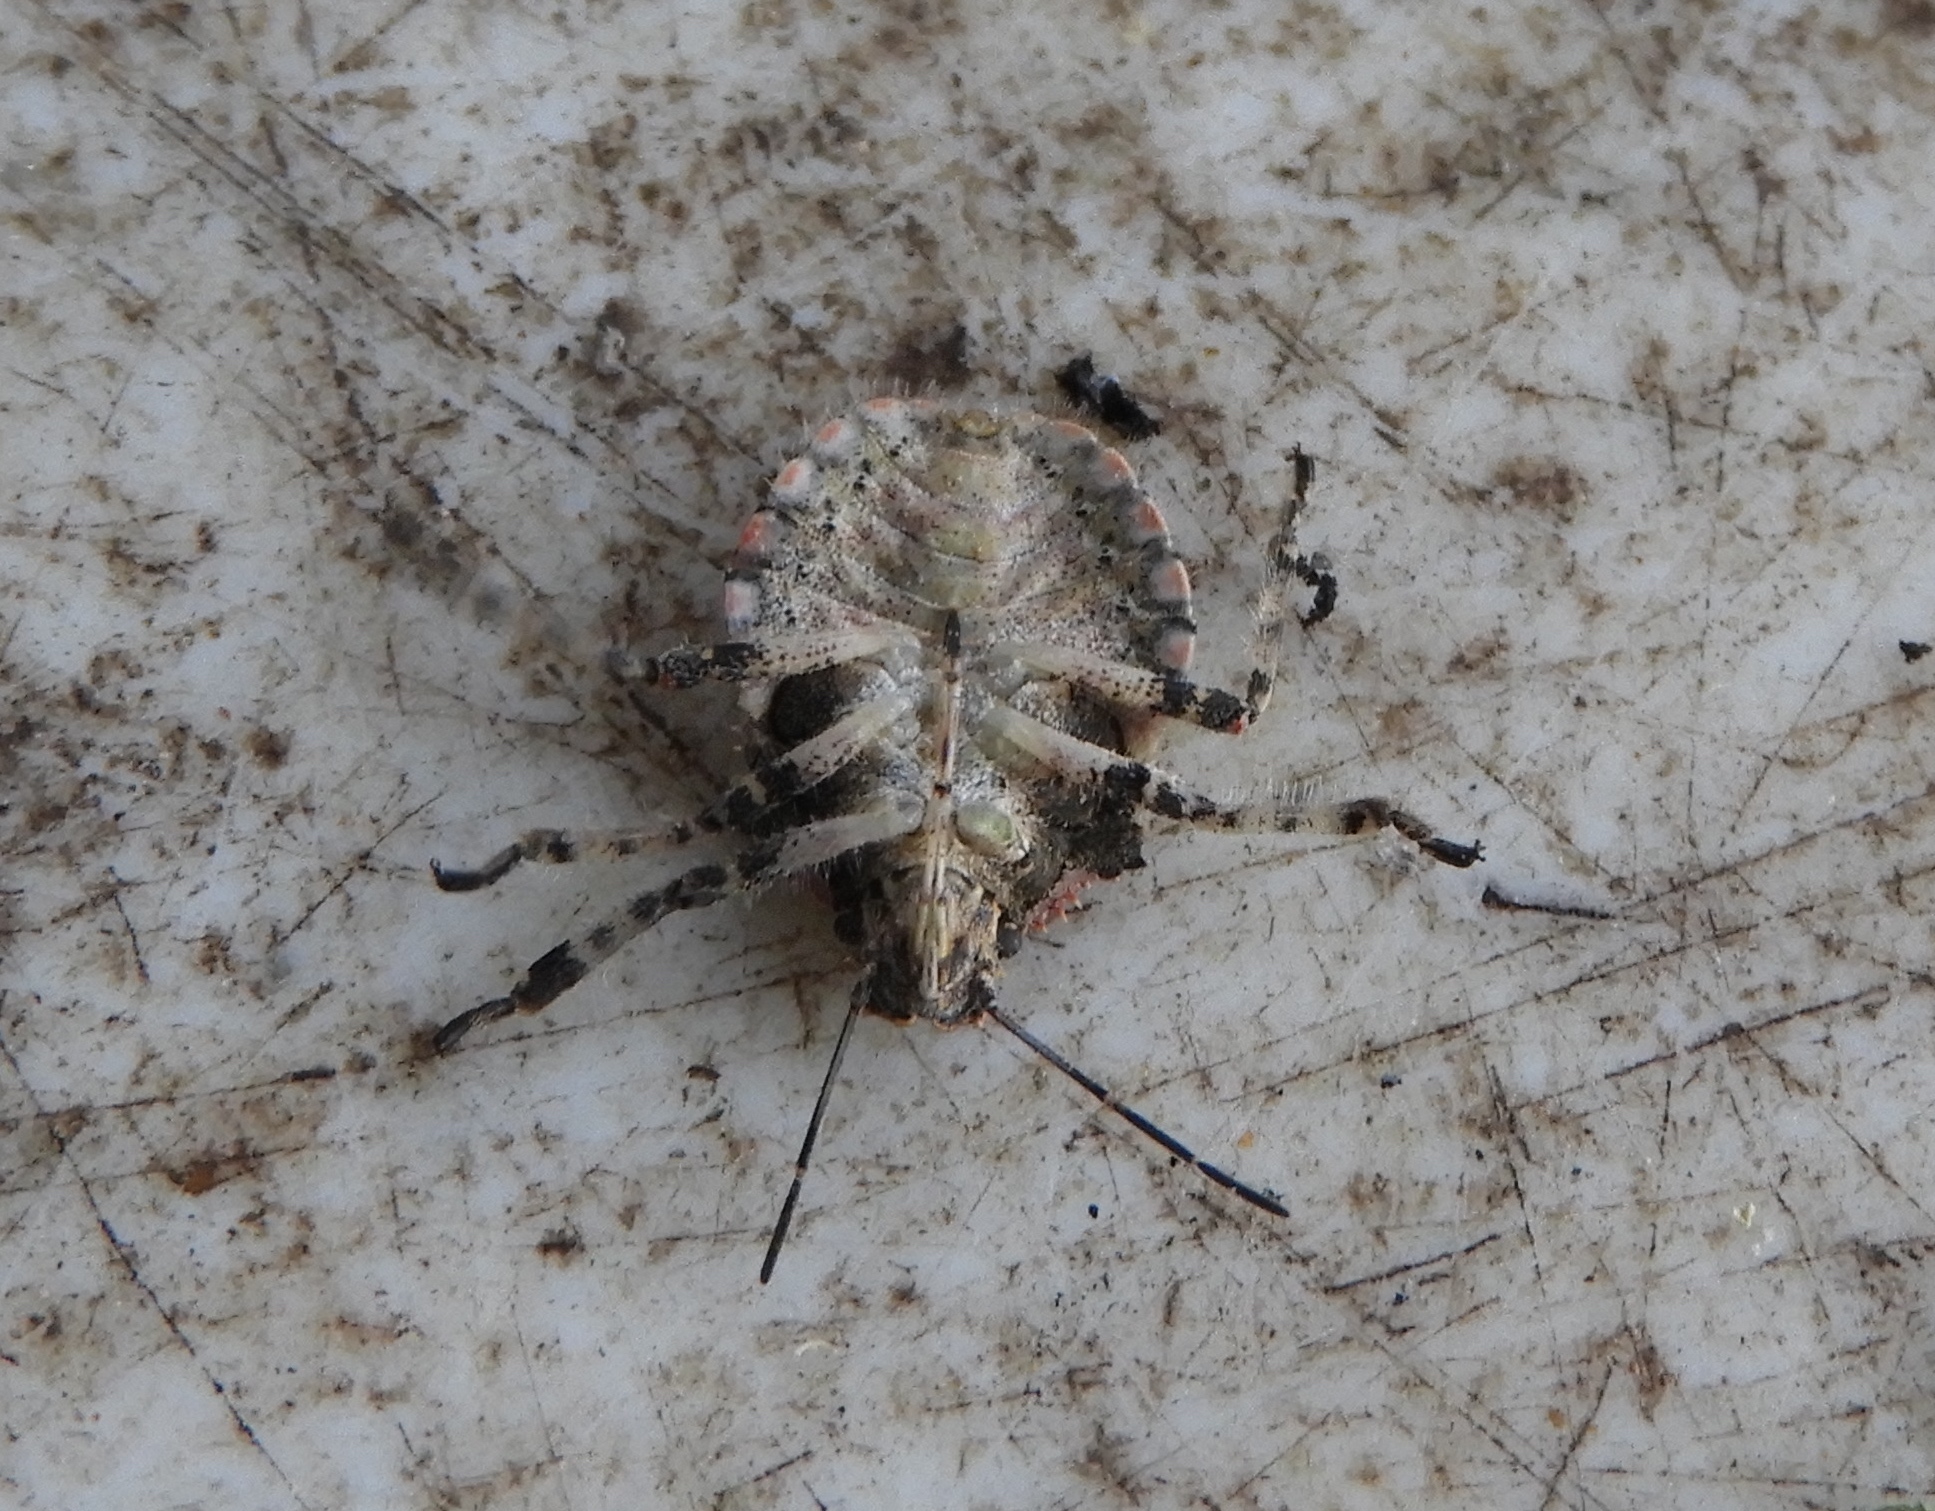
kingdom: Animalia
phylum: Arthropoda
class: Insecta
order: Hemiptera
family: Pentatomidae
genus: Brochymena
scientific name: Brochymena
